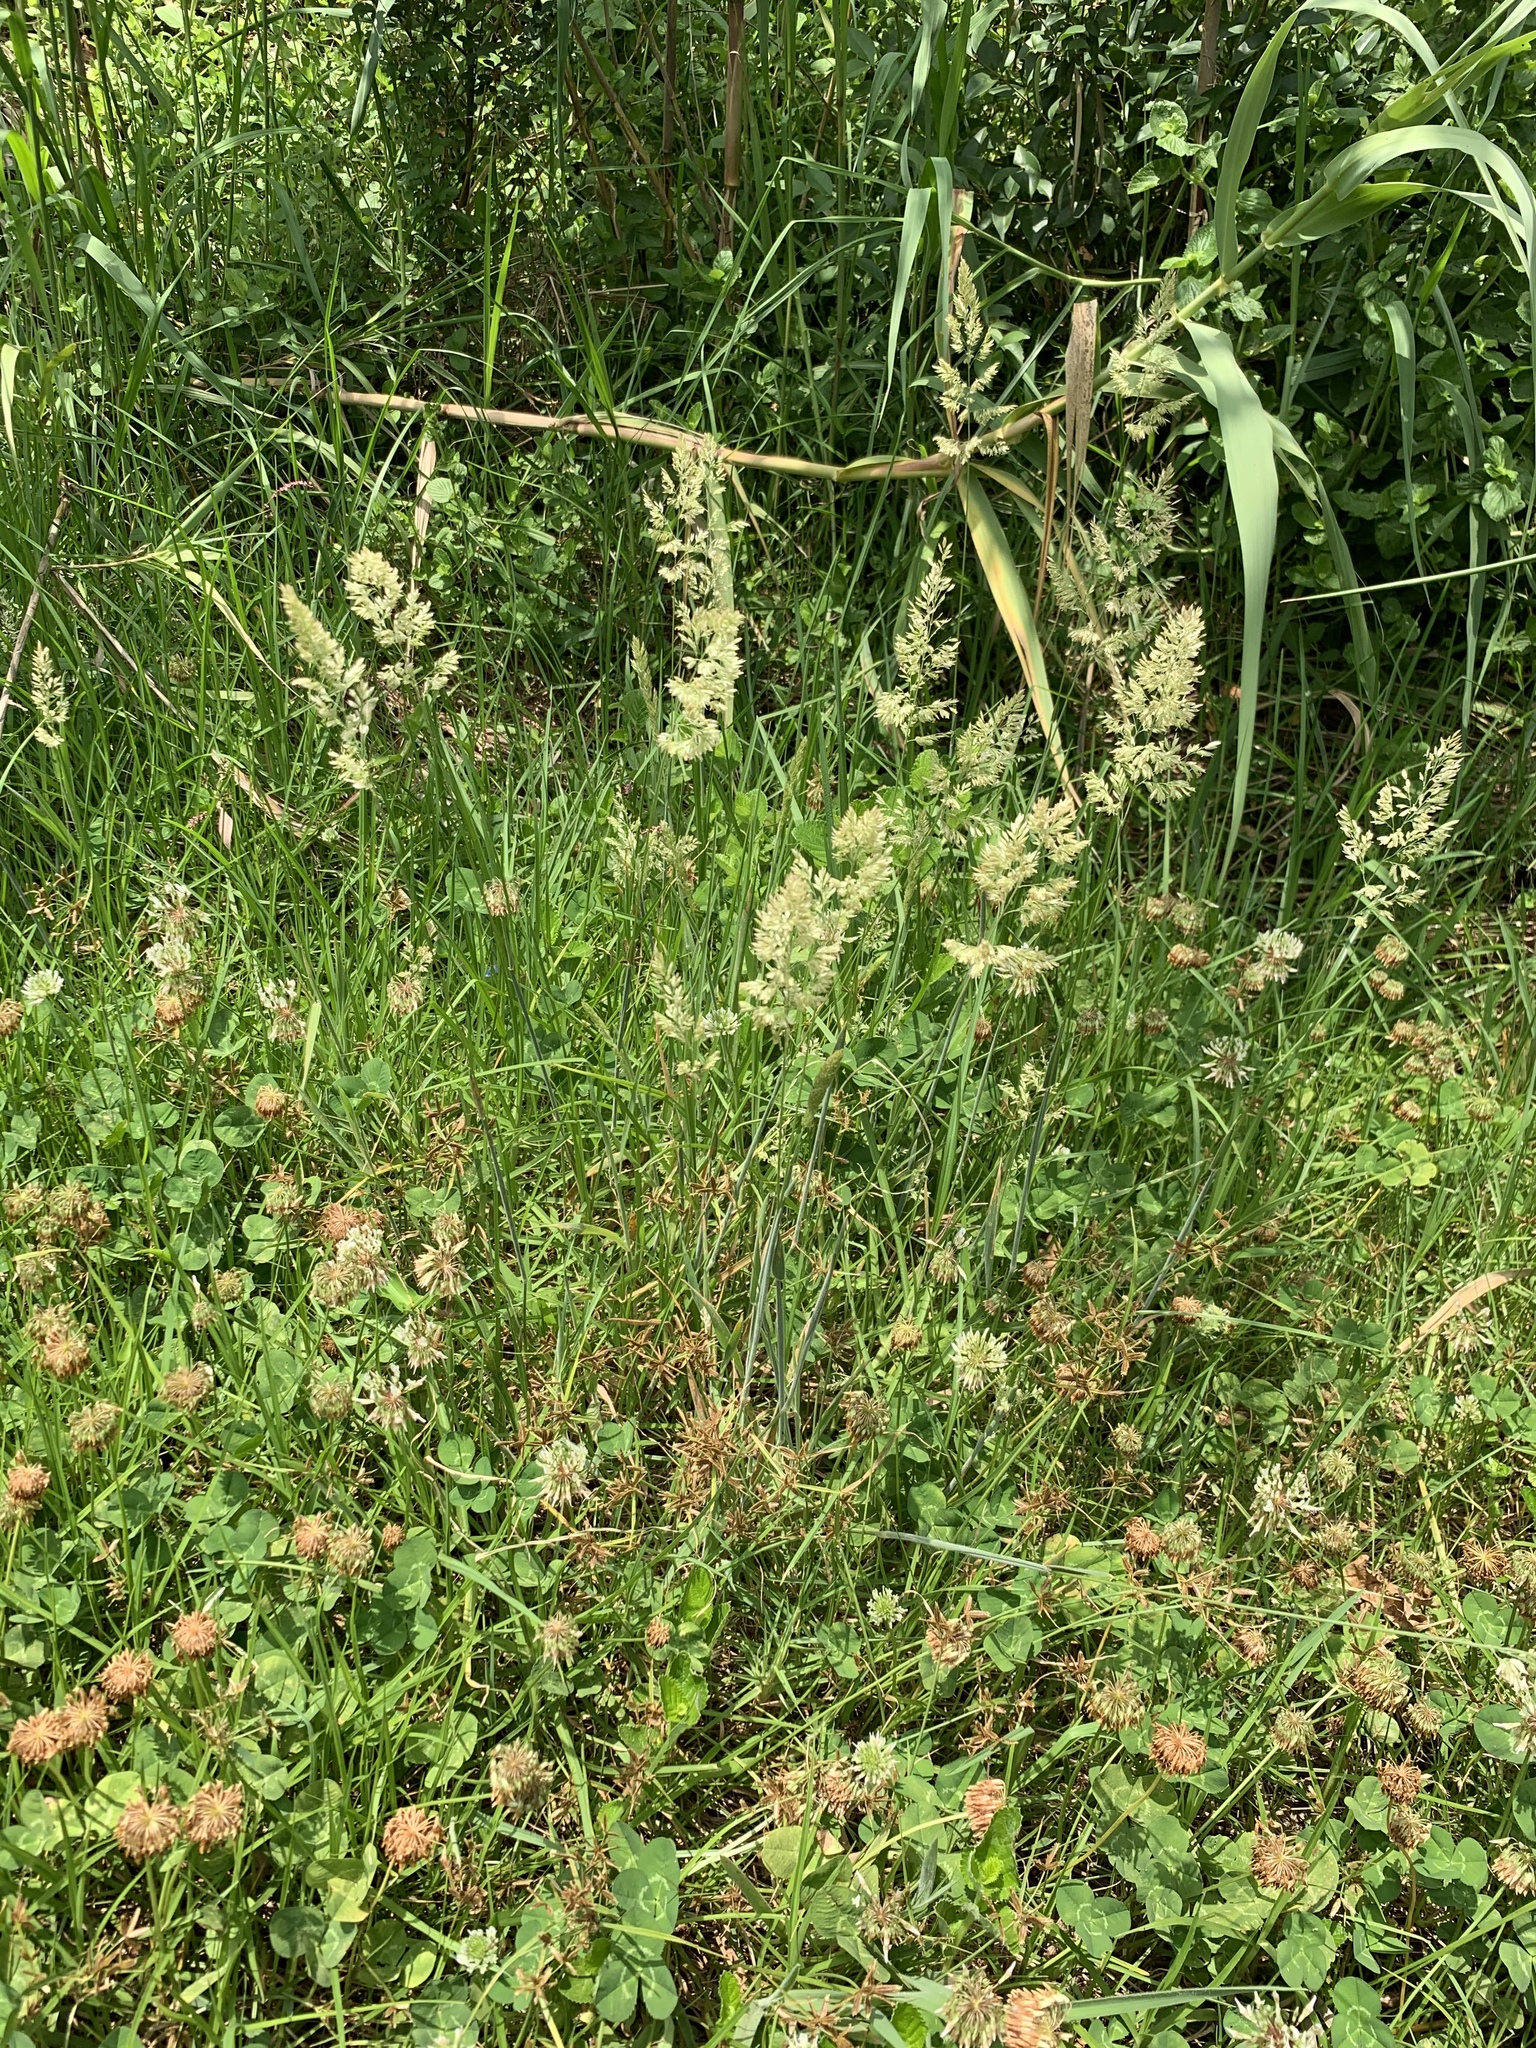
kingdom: Plantae
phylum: Tracheophyta
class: Liliopsida
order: Poales
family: Poaceae
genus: Holcus
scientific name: Holcus lanatus
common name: Yorkshire-fog
